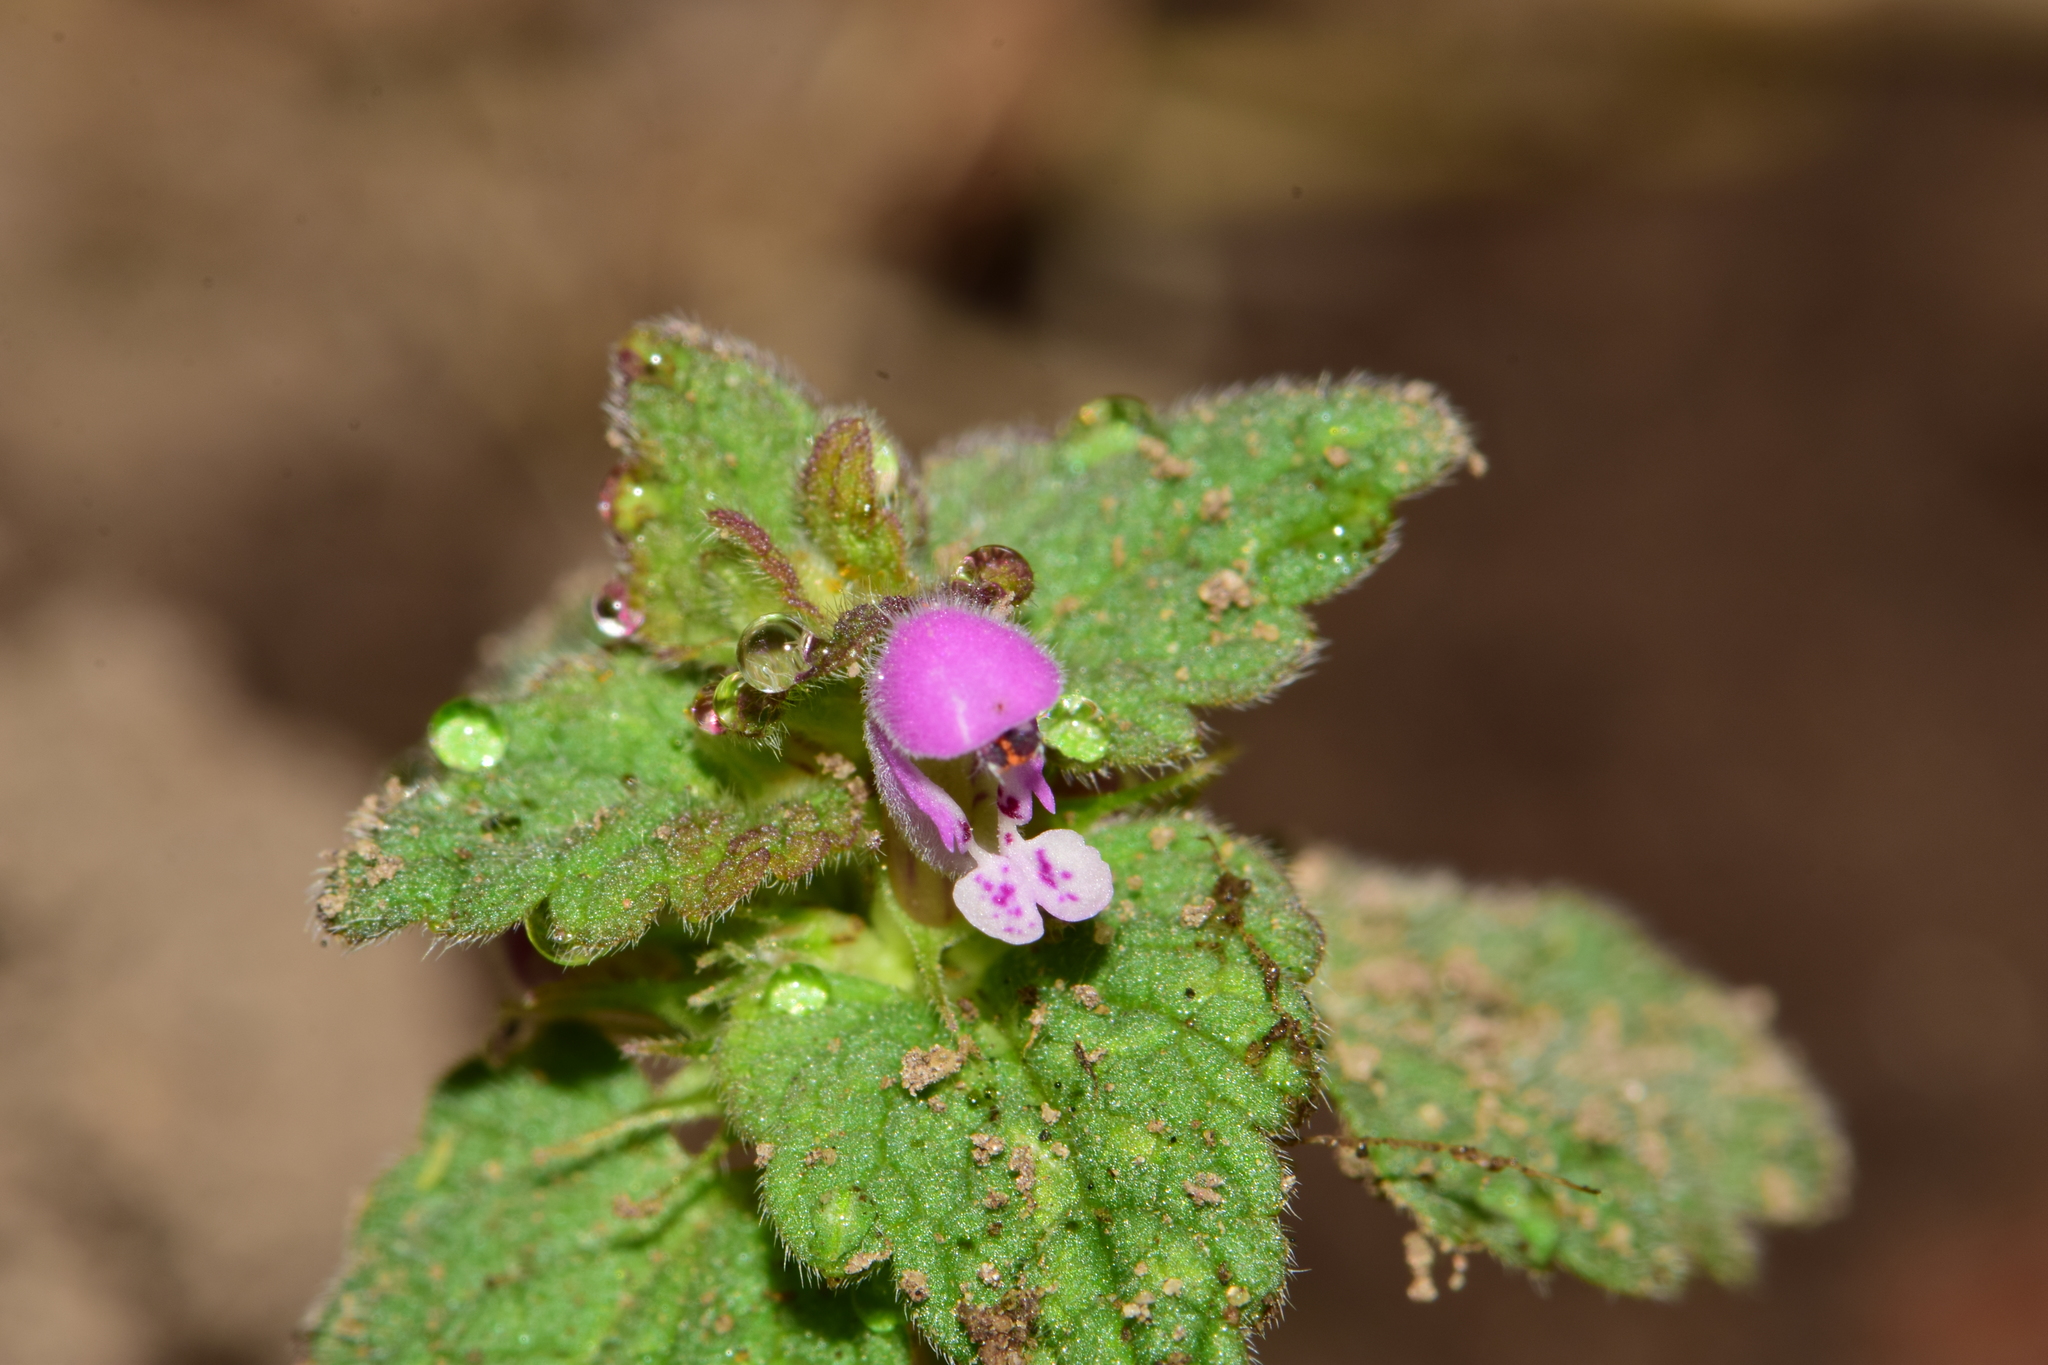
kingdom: Plantae
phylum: Tracheophyta
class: Magnoliopsida
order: Lamiales
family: Lamiaceae
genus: Lamium
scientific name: Lamium purpureum
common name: Red dead-nettle
